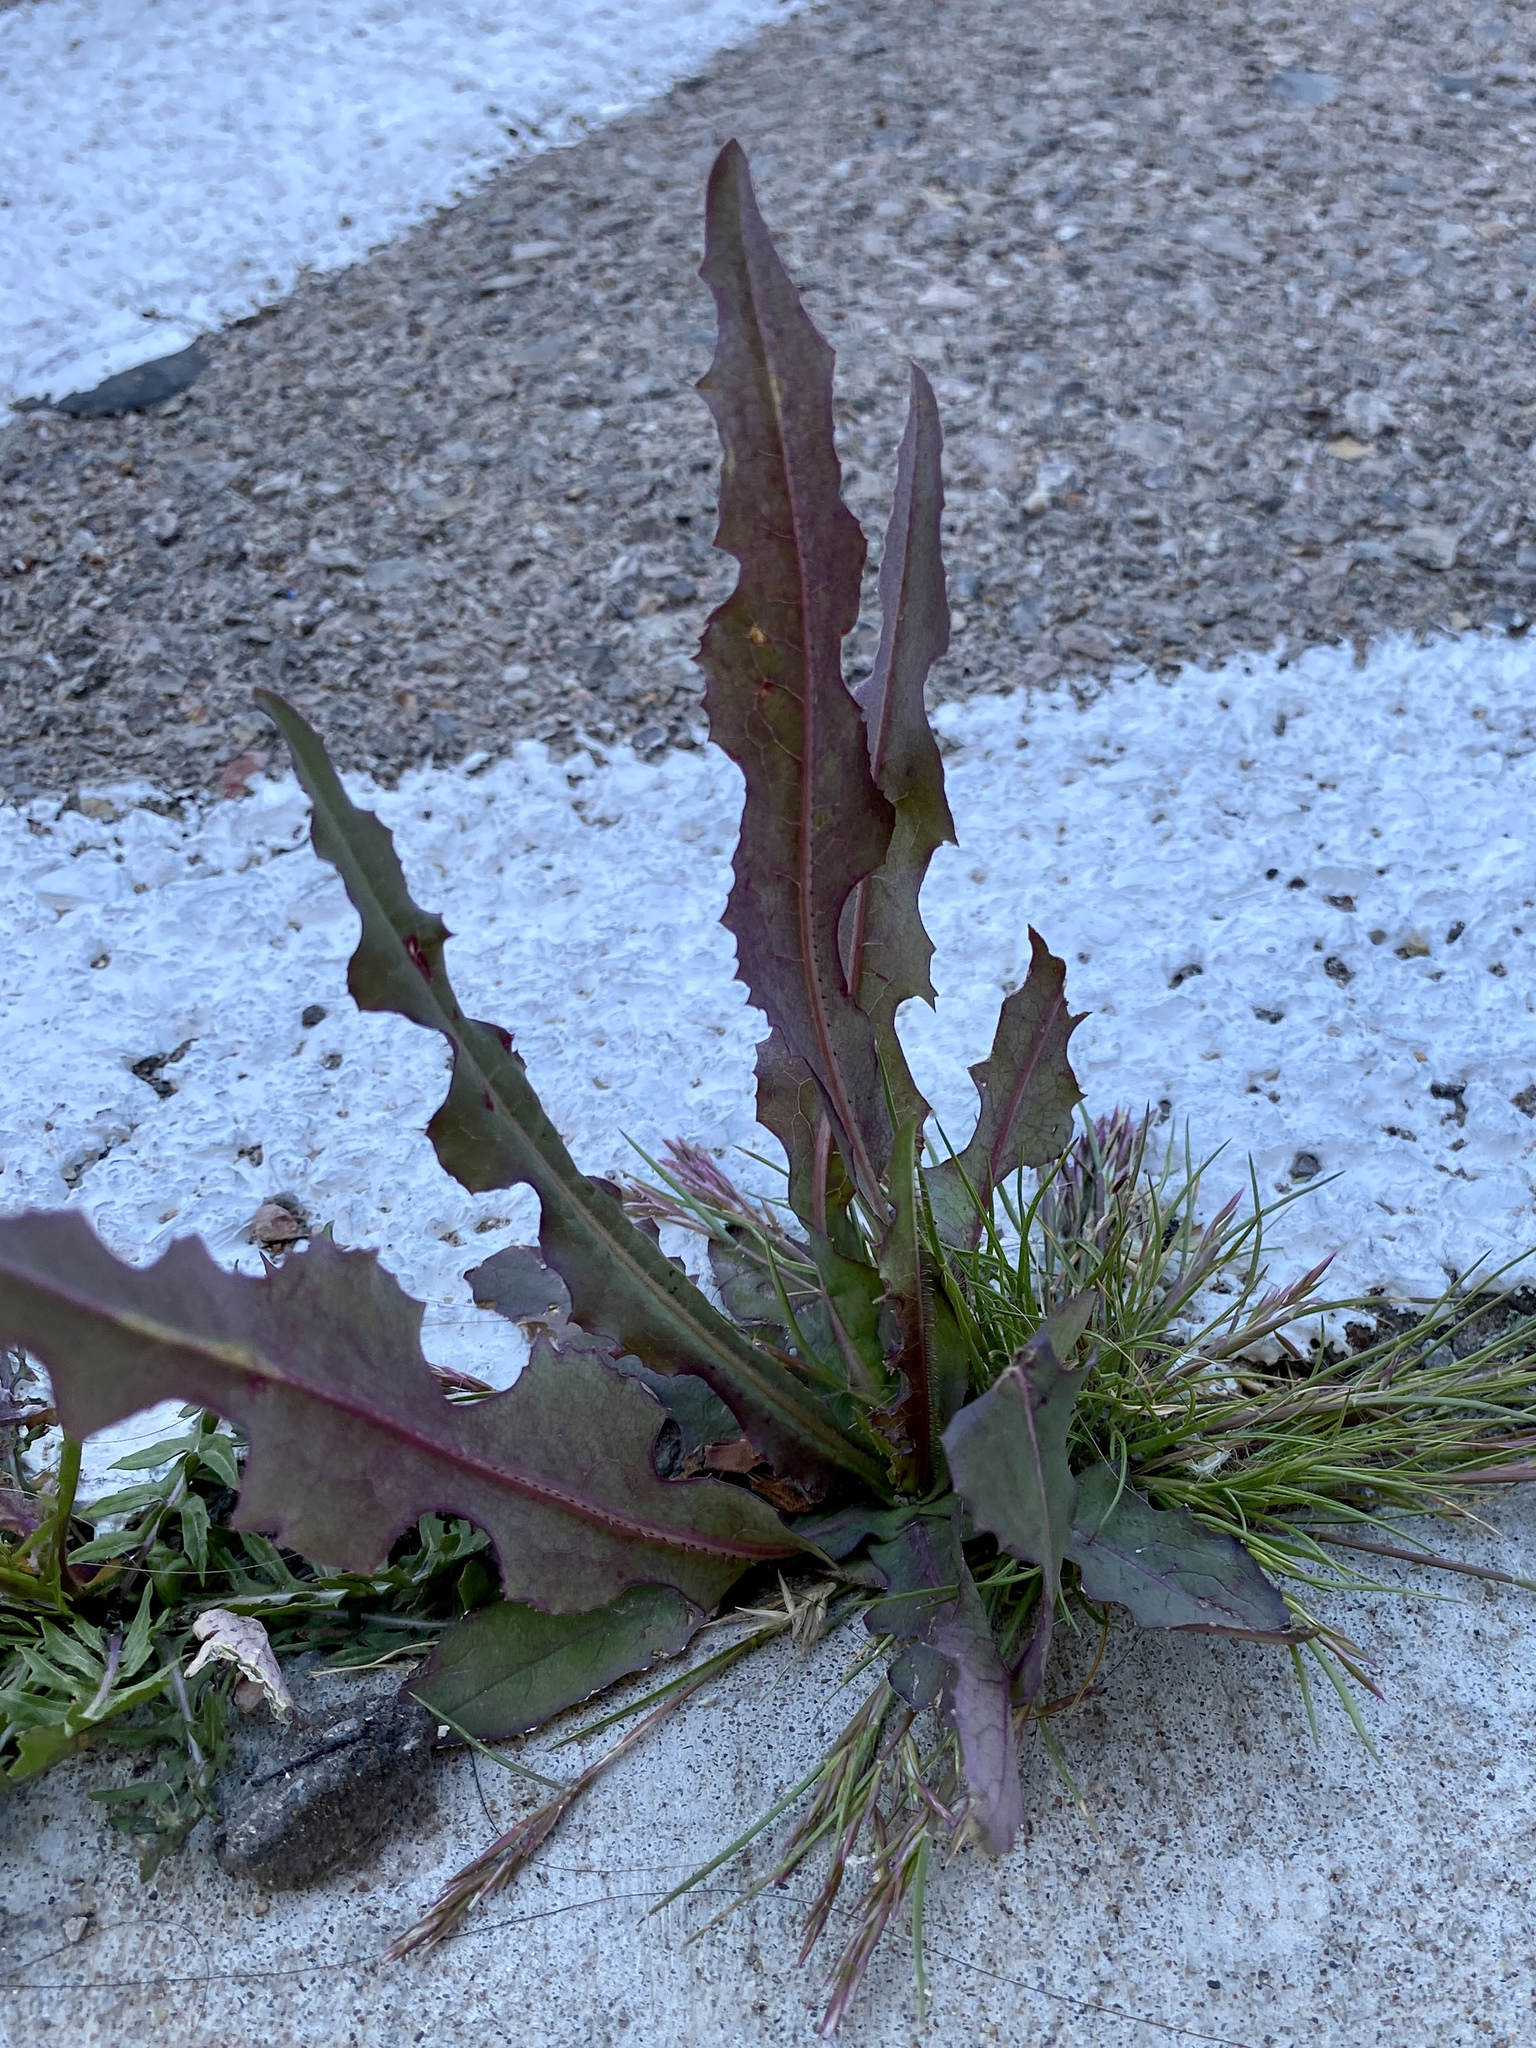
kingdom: Plantae
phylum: Tracheophyta
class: Magnoliopsida
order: Asterales
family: Asteraceae
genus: Sonchus
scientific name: Sonchus oleraceus
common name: Common sowthistle
